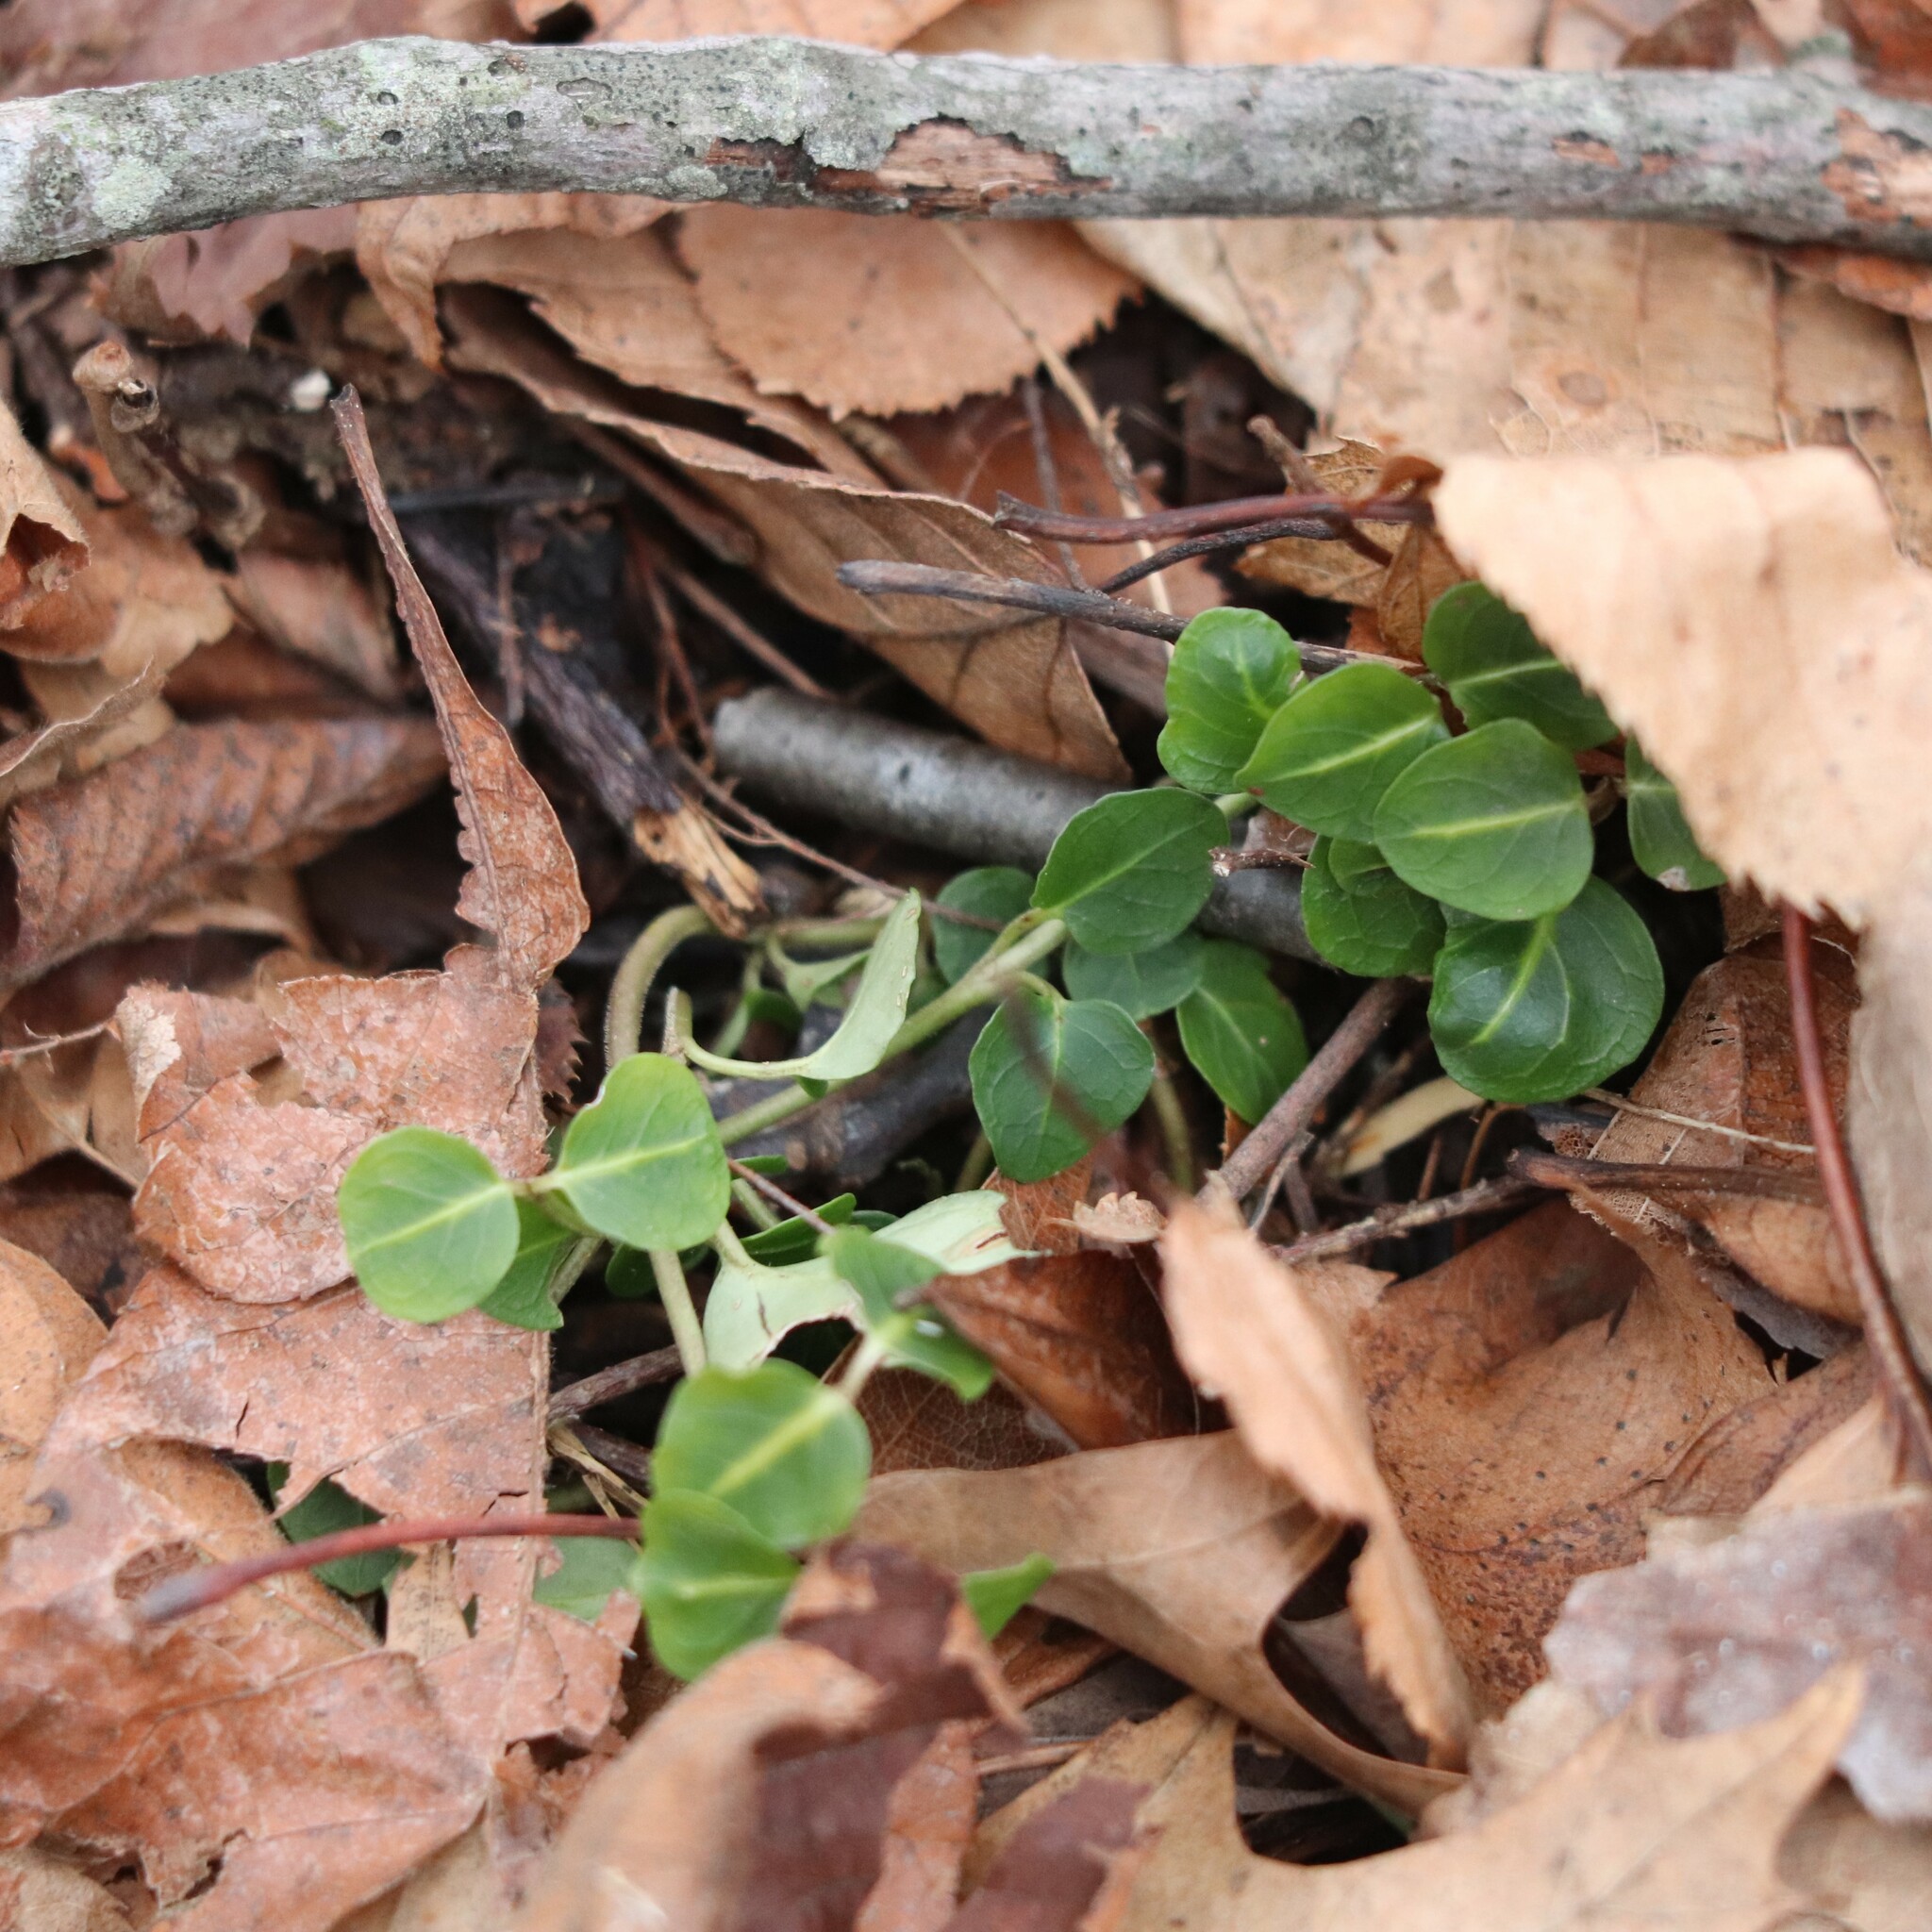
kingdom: Plantae
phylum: Tracheophyta
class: Magnoliopsida
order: Gentianales
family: Rubiaceae
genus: Mitchella
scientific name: Mitchella repens
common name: Partridge-berry
